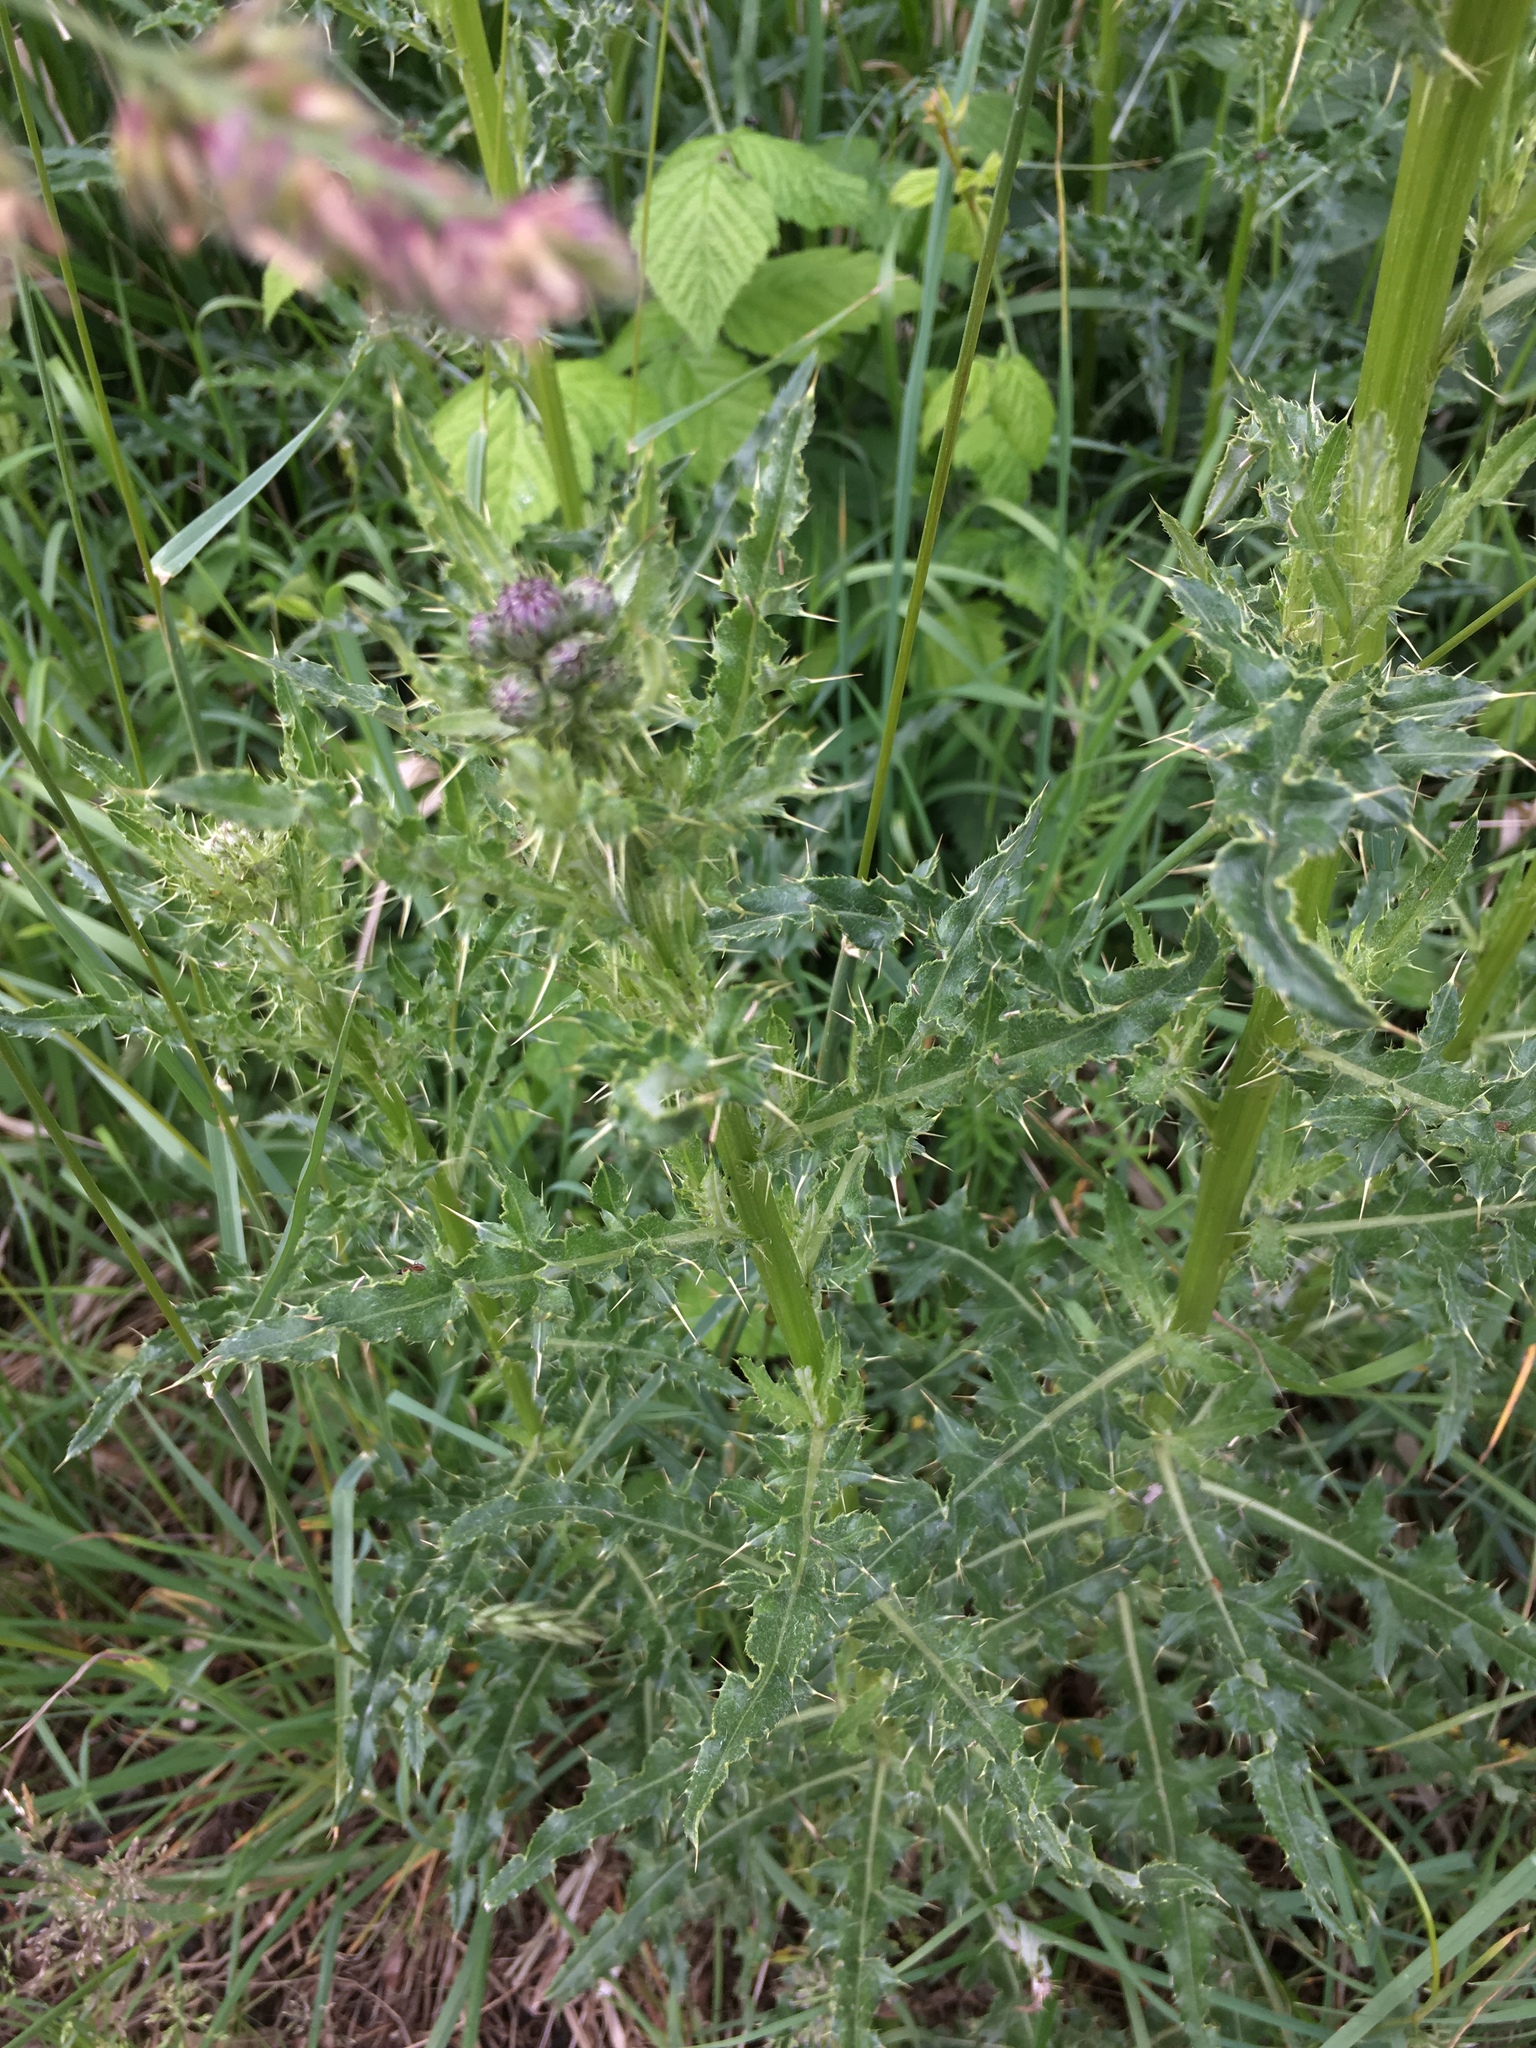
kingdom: Plantae
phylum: Tracheophyta
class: Magnoliopsida
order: Asterales
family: Asteraceae
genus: Cirsium
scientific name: Cirsium arvense
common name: Creeping thistle
